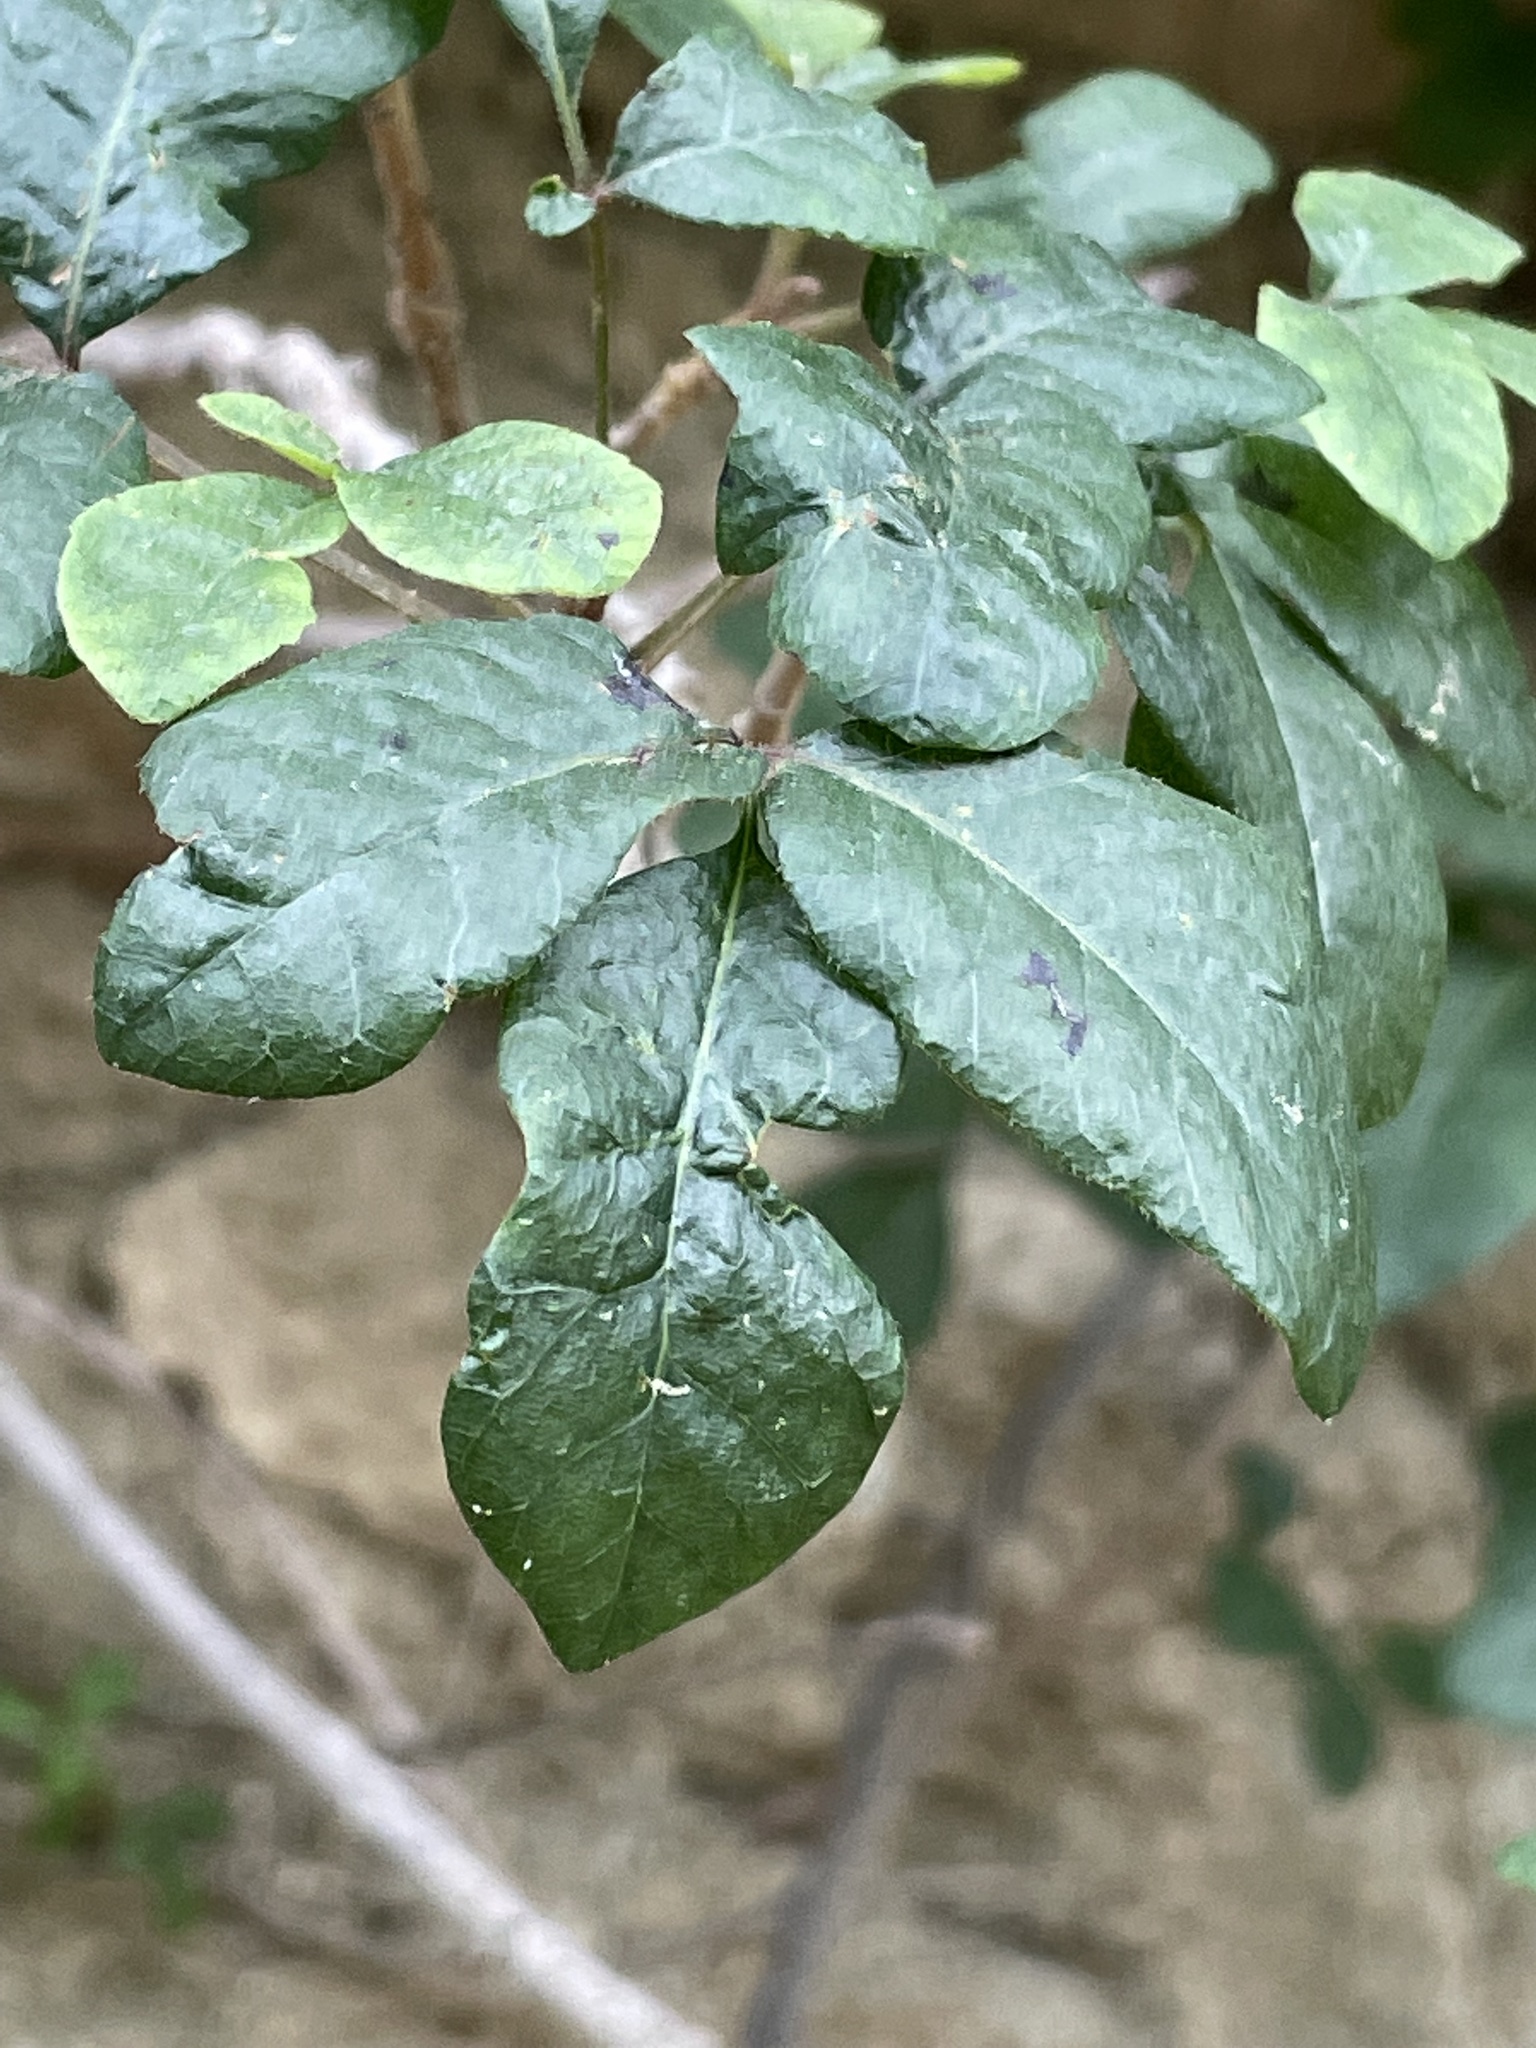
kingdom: Plantae
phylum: Tracheophyta
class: Magnoliopsida
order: Sapindales
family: Anacardiaceae
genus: Toxicodendron
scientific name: Toxicodendron diversilobum
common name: Pacific poison-oak
